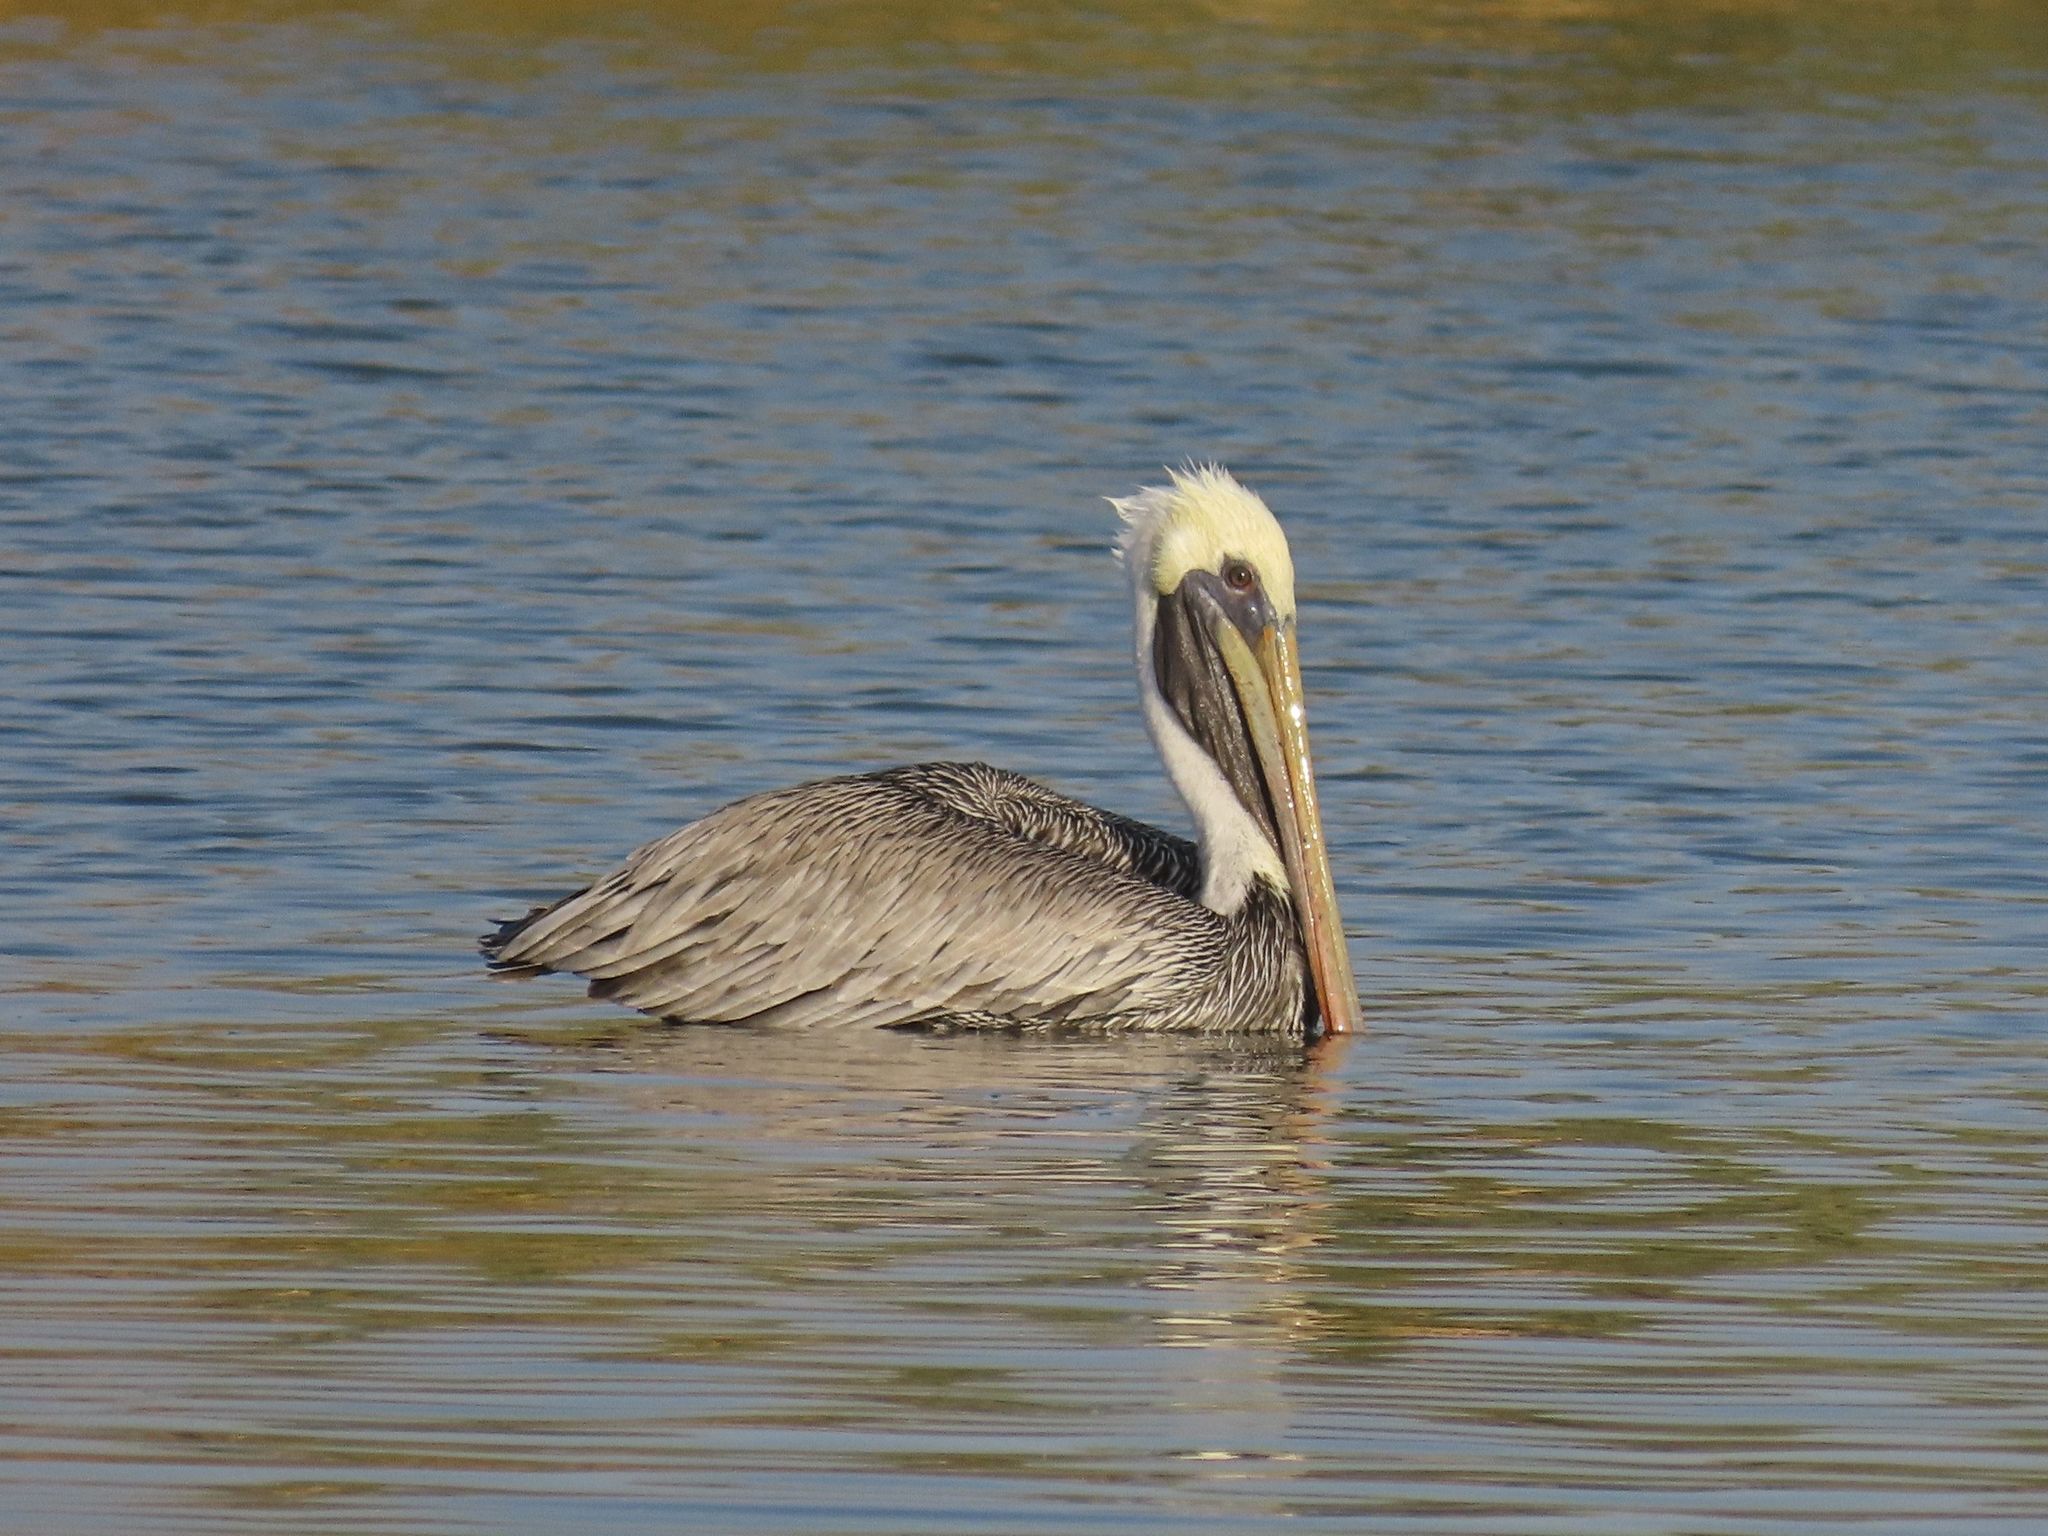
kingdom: Animalia
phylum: Chordata
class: Aves
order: Pelecaniformes
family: Pelecanidae
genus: Pelecanus
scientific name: Pelecanus occidentalis
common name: Brown pelican
